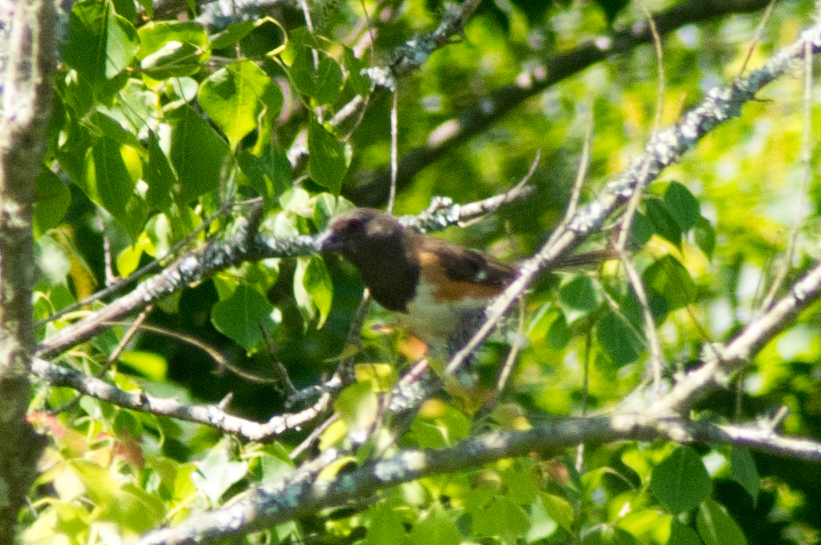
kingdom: Animalia
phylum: Chordata
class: Aves
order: Passeriformes
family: Passerellidae
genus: Pipilo
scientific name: Pipilo erythrophthalmus
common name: Eastern towhee
